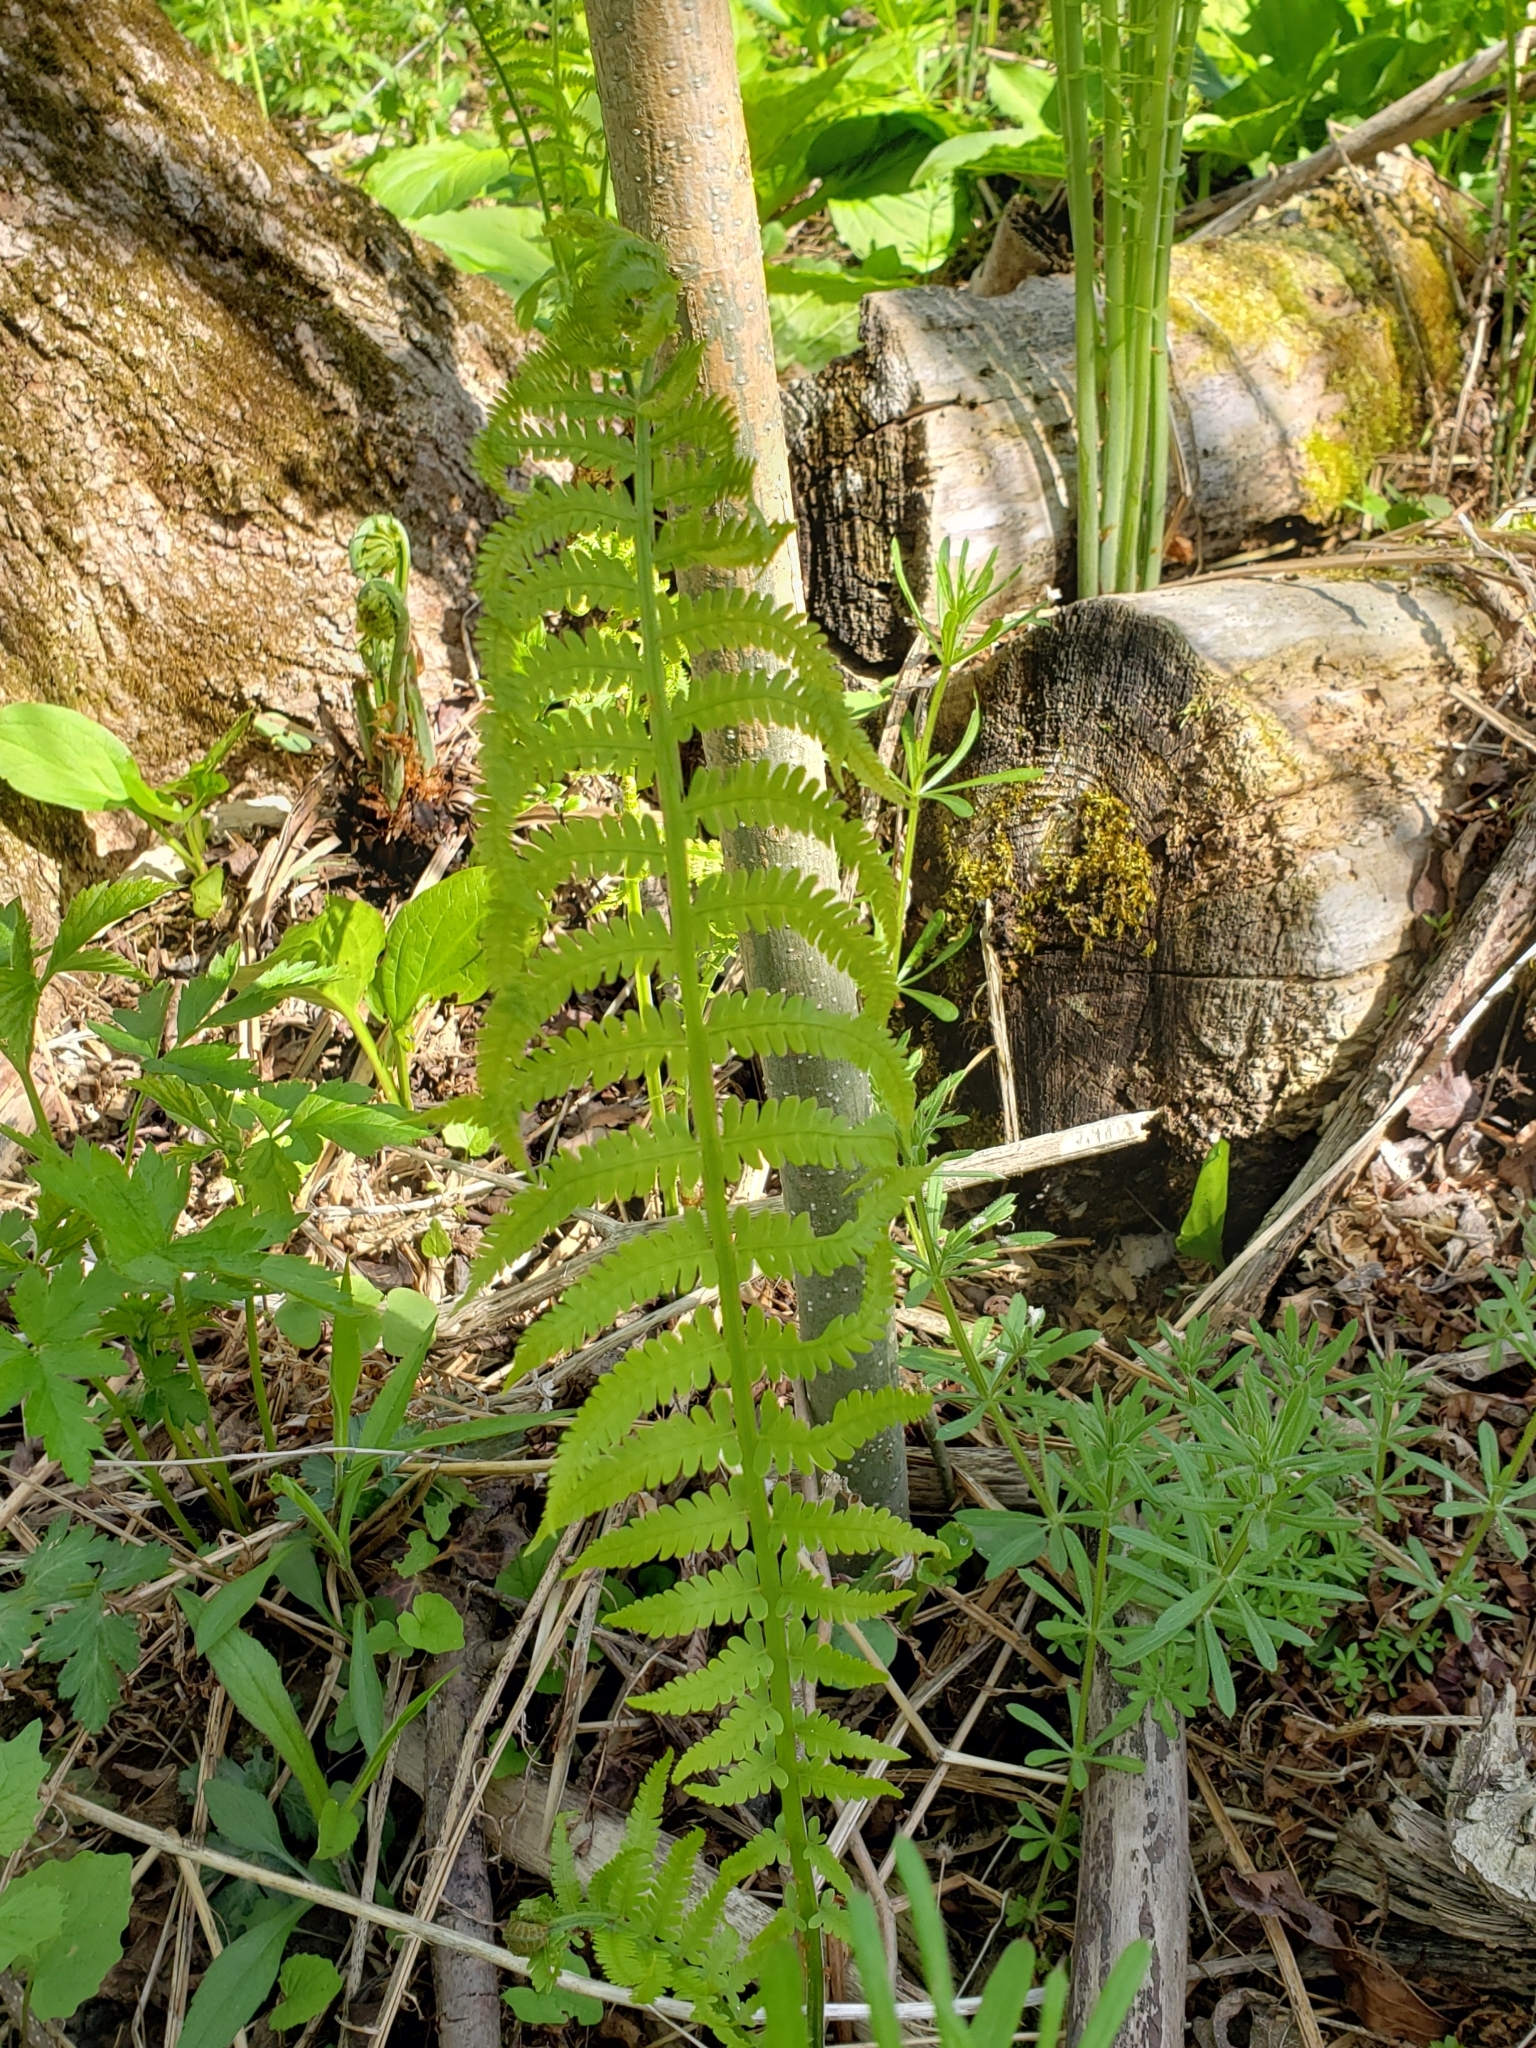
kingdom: Plantae
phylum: Tracheophyta
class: Polypodiopsida
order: Polypodiales
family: Onocleaceae
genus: Matteuccia
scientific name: Matteuccia struthiopteris
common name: Ostrich fern
